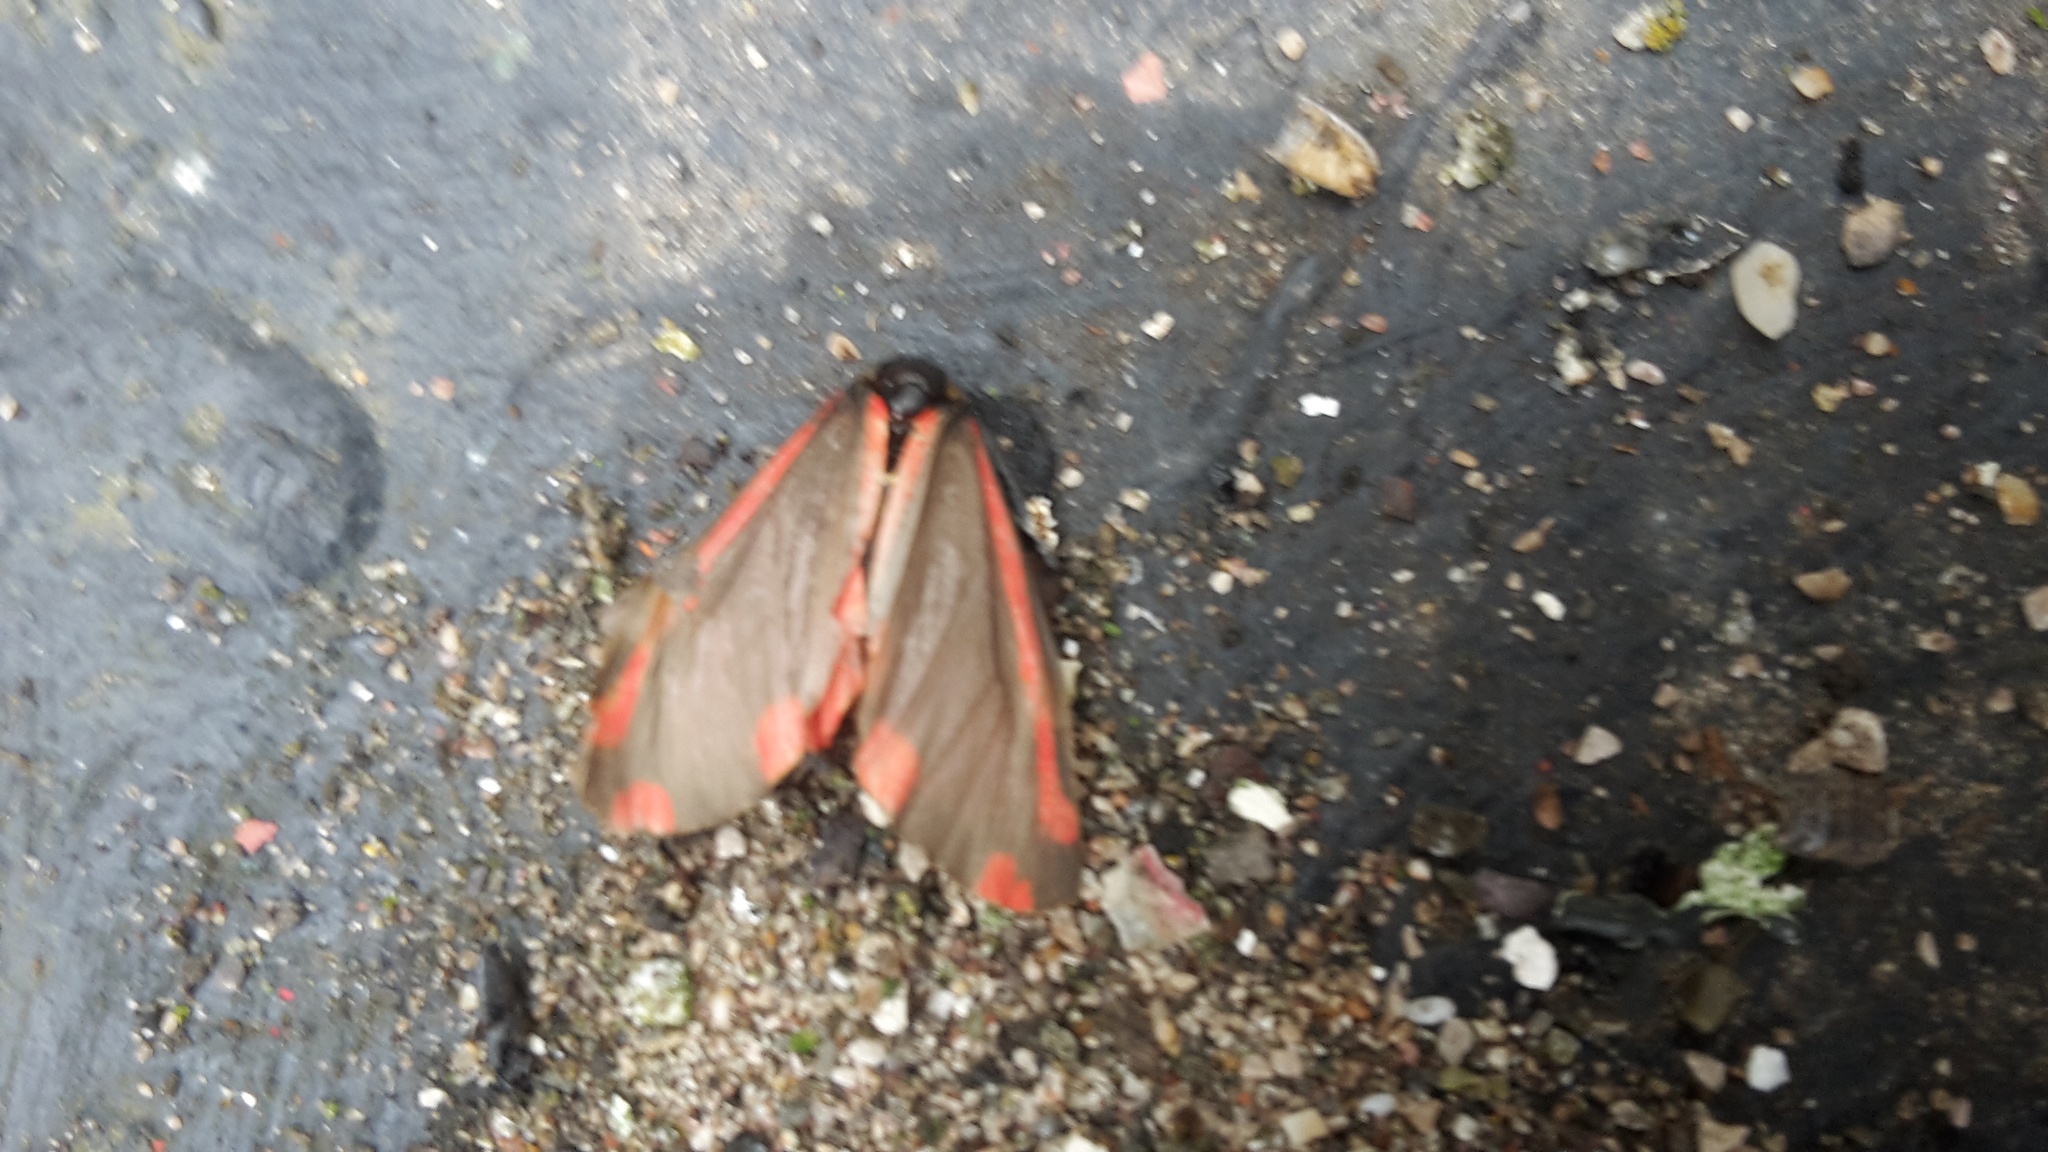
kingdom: Animalia
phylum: Arthropoda
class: Insecta
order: Lepidoptera
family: Erebidae
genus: Tyria
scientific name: Tyria jacobaeae
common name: Cinnabar
